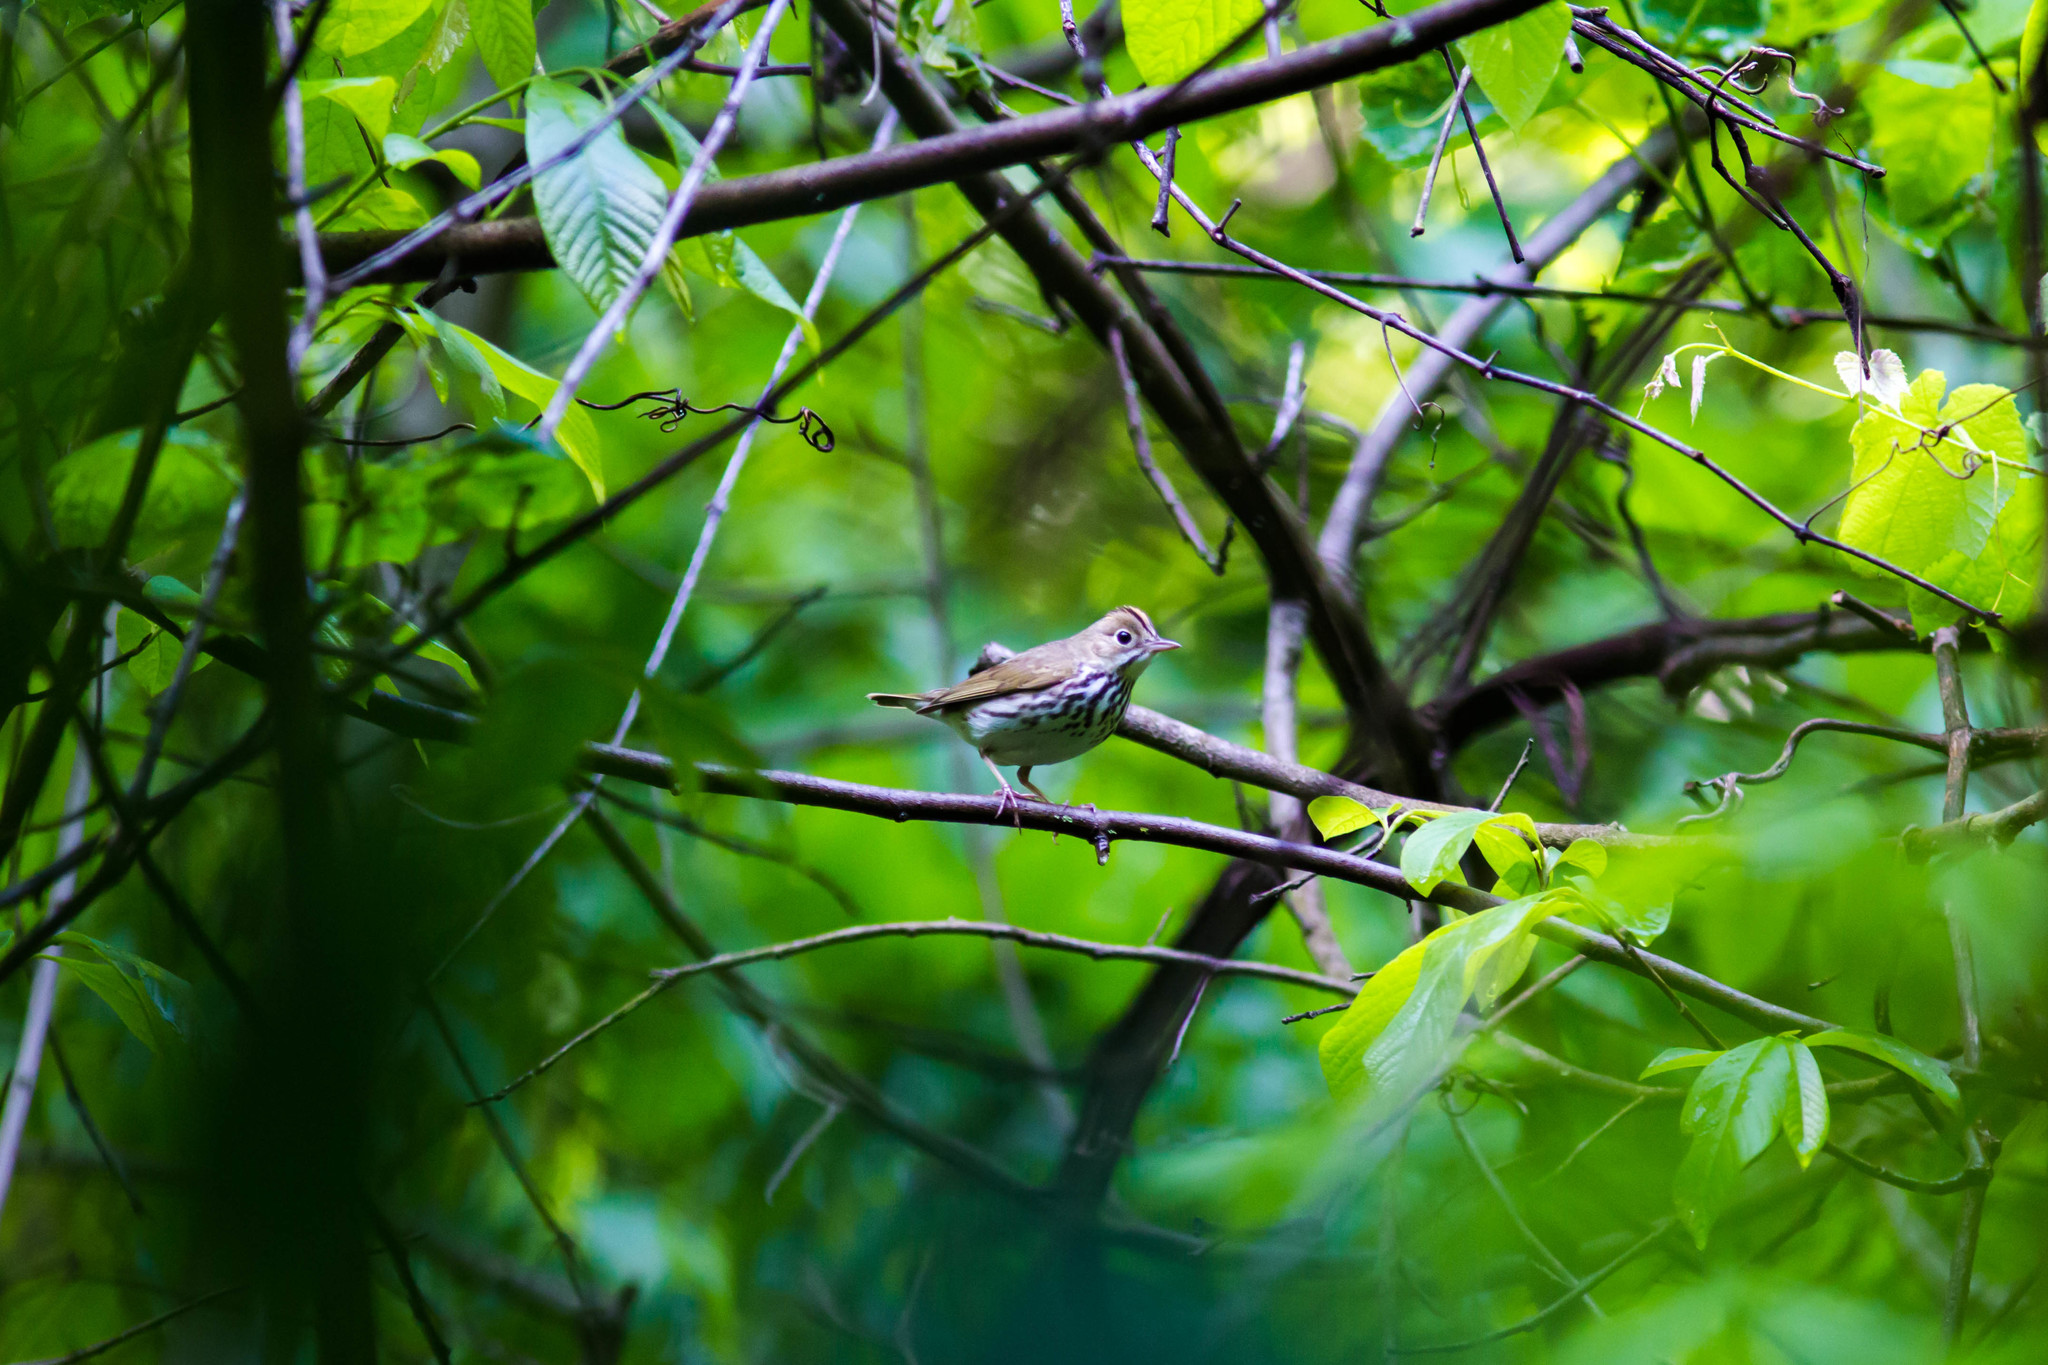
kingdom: Animalia
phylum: Chordata
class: Aves
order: Passeriformes
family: Parulidae
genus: Seiurus
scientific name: Seiurus aurocapilla
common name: Ovenbird
